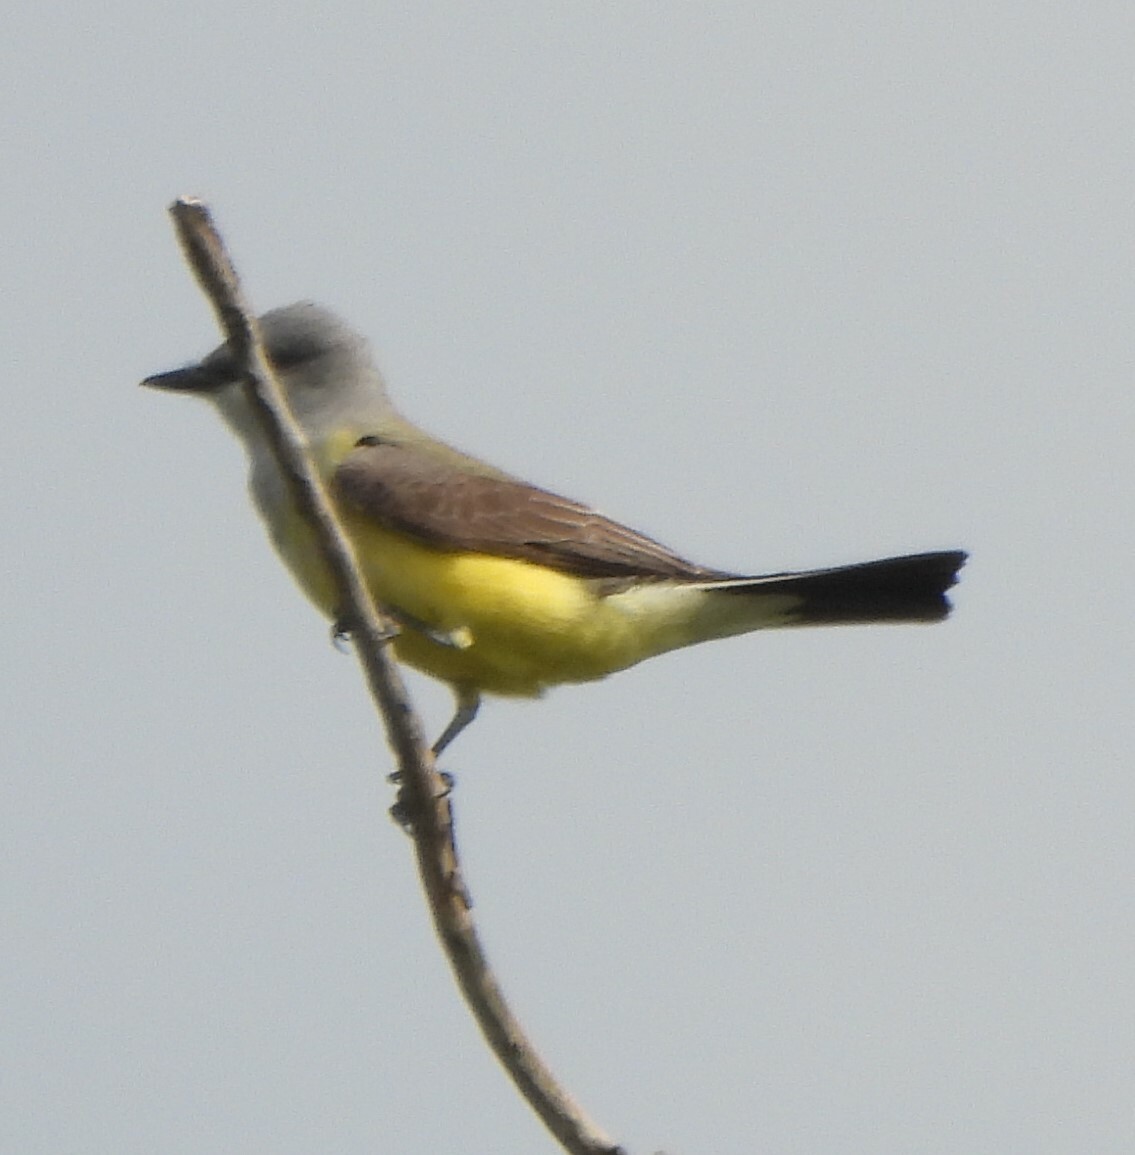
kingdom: Animalia
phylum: Chordata
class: Aves
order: Passeriformes
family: Tyrannidae
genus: Tyrannus
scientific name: Tyrannus verticalis
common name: Western kingbird
